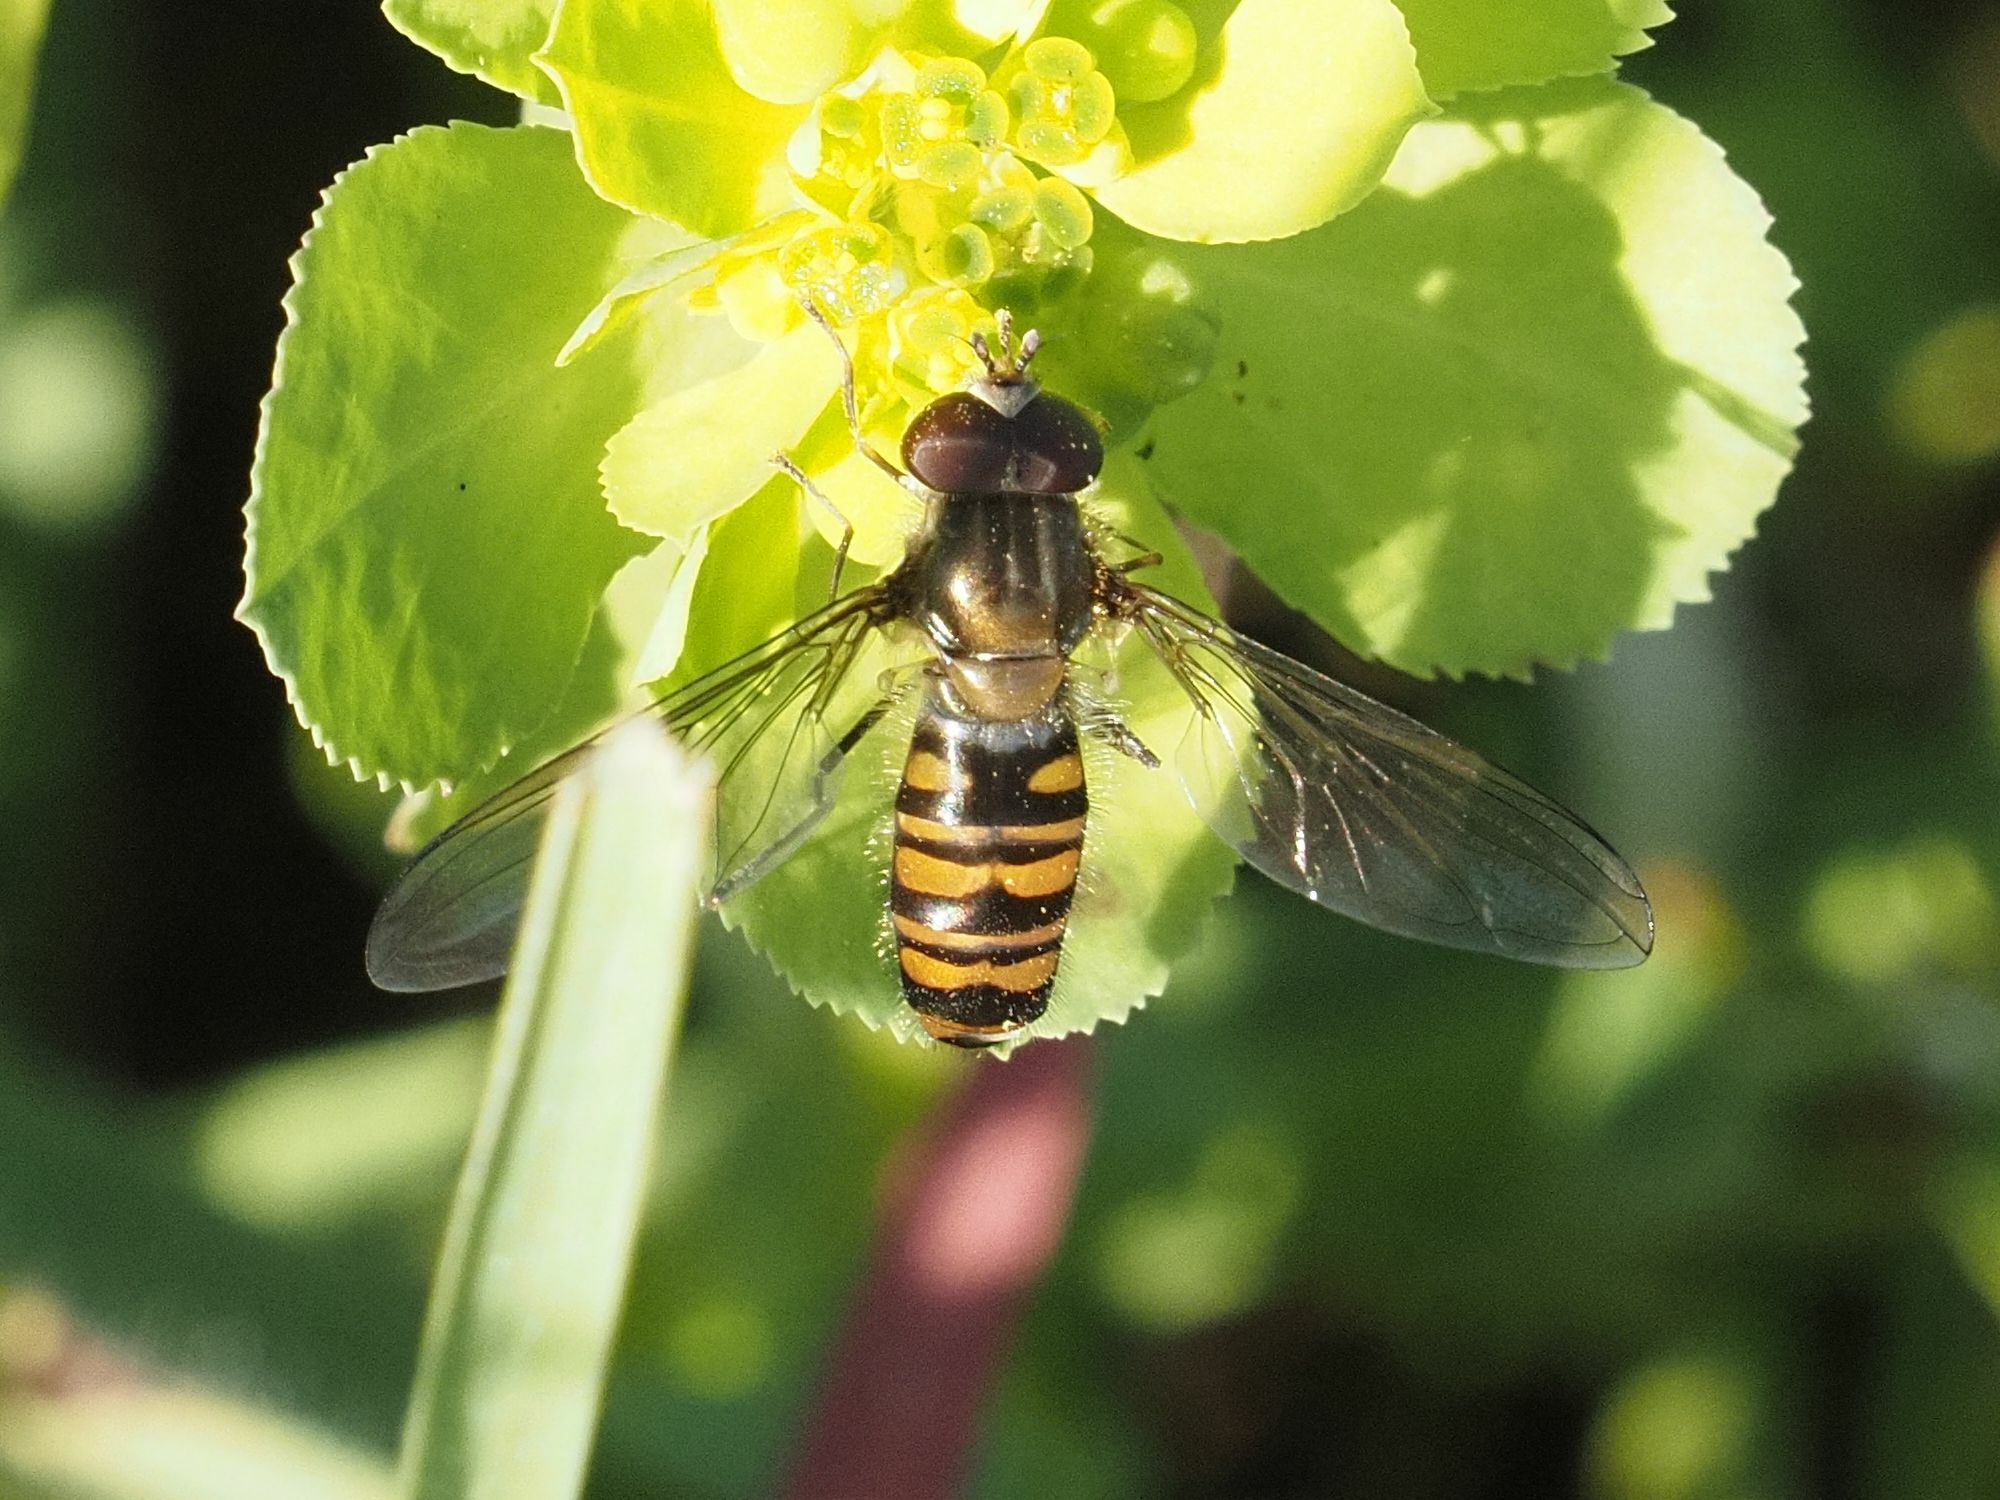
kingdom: Animalia
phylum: Arthropoda
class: Insecta
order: Diptera
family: Syrphidae
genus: Episyrphus
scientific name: Episyrphus balteatus
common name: Marmalade hoverfly
